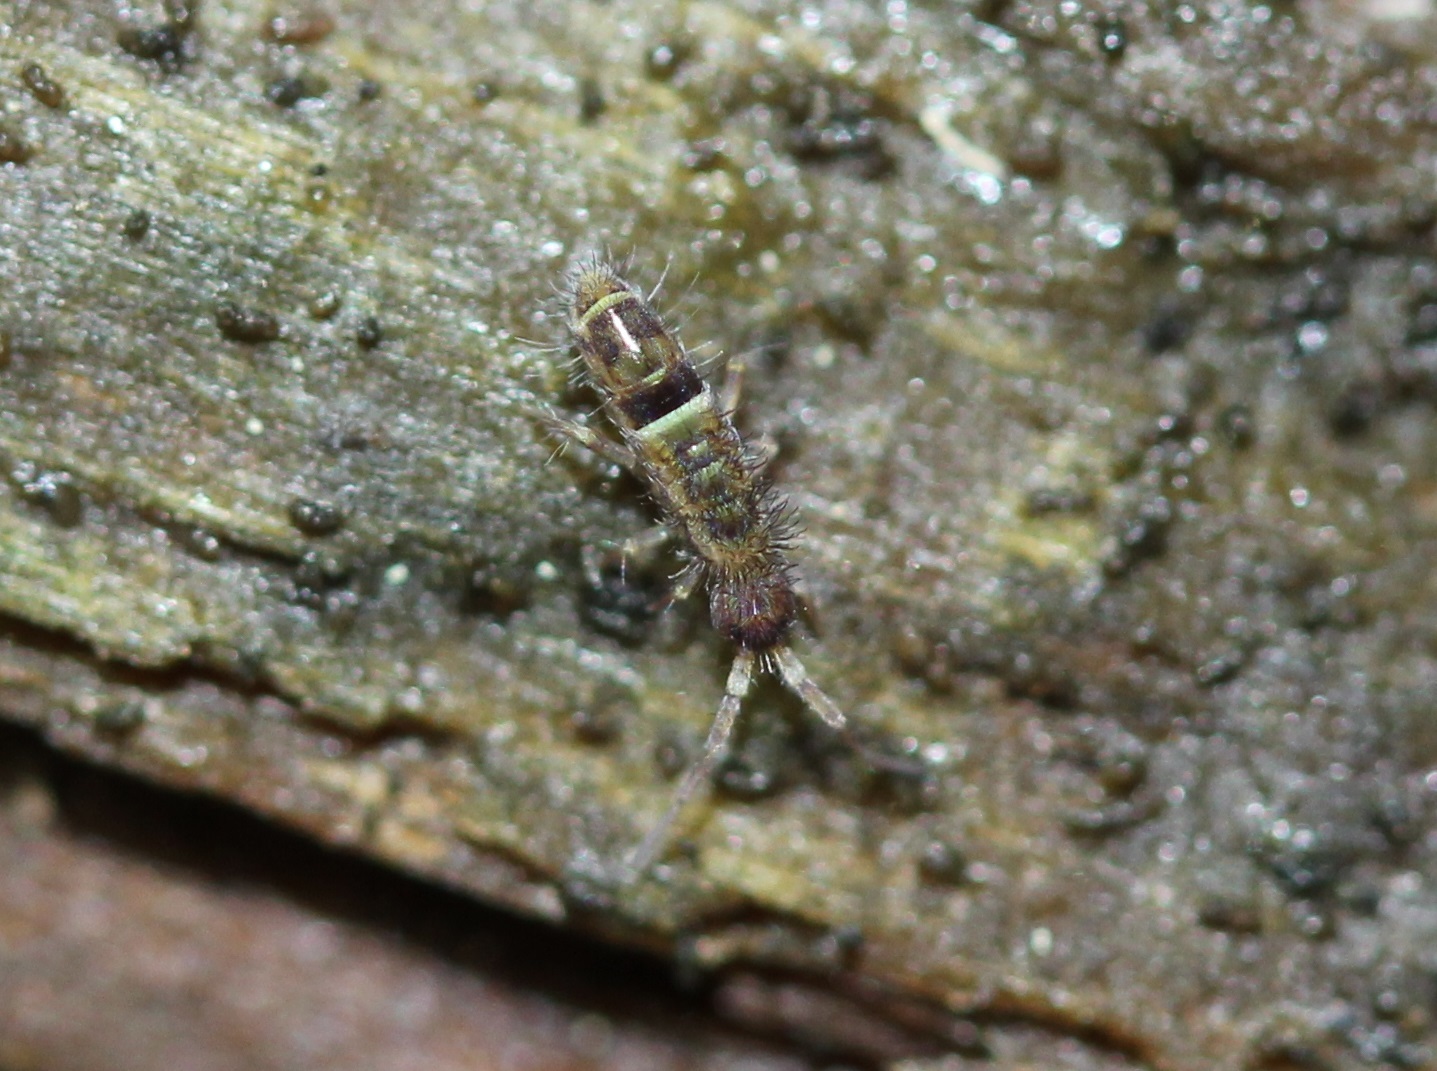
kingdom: Animalia
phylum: Arthropoda
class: Collembola
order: Entomobryomorpha
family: Orchesellidae
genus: Orchesella
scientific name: Orchesella cincta
